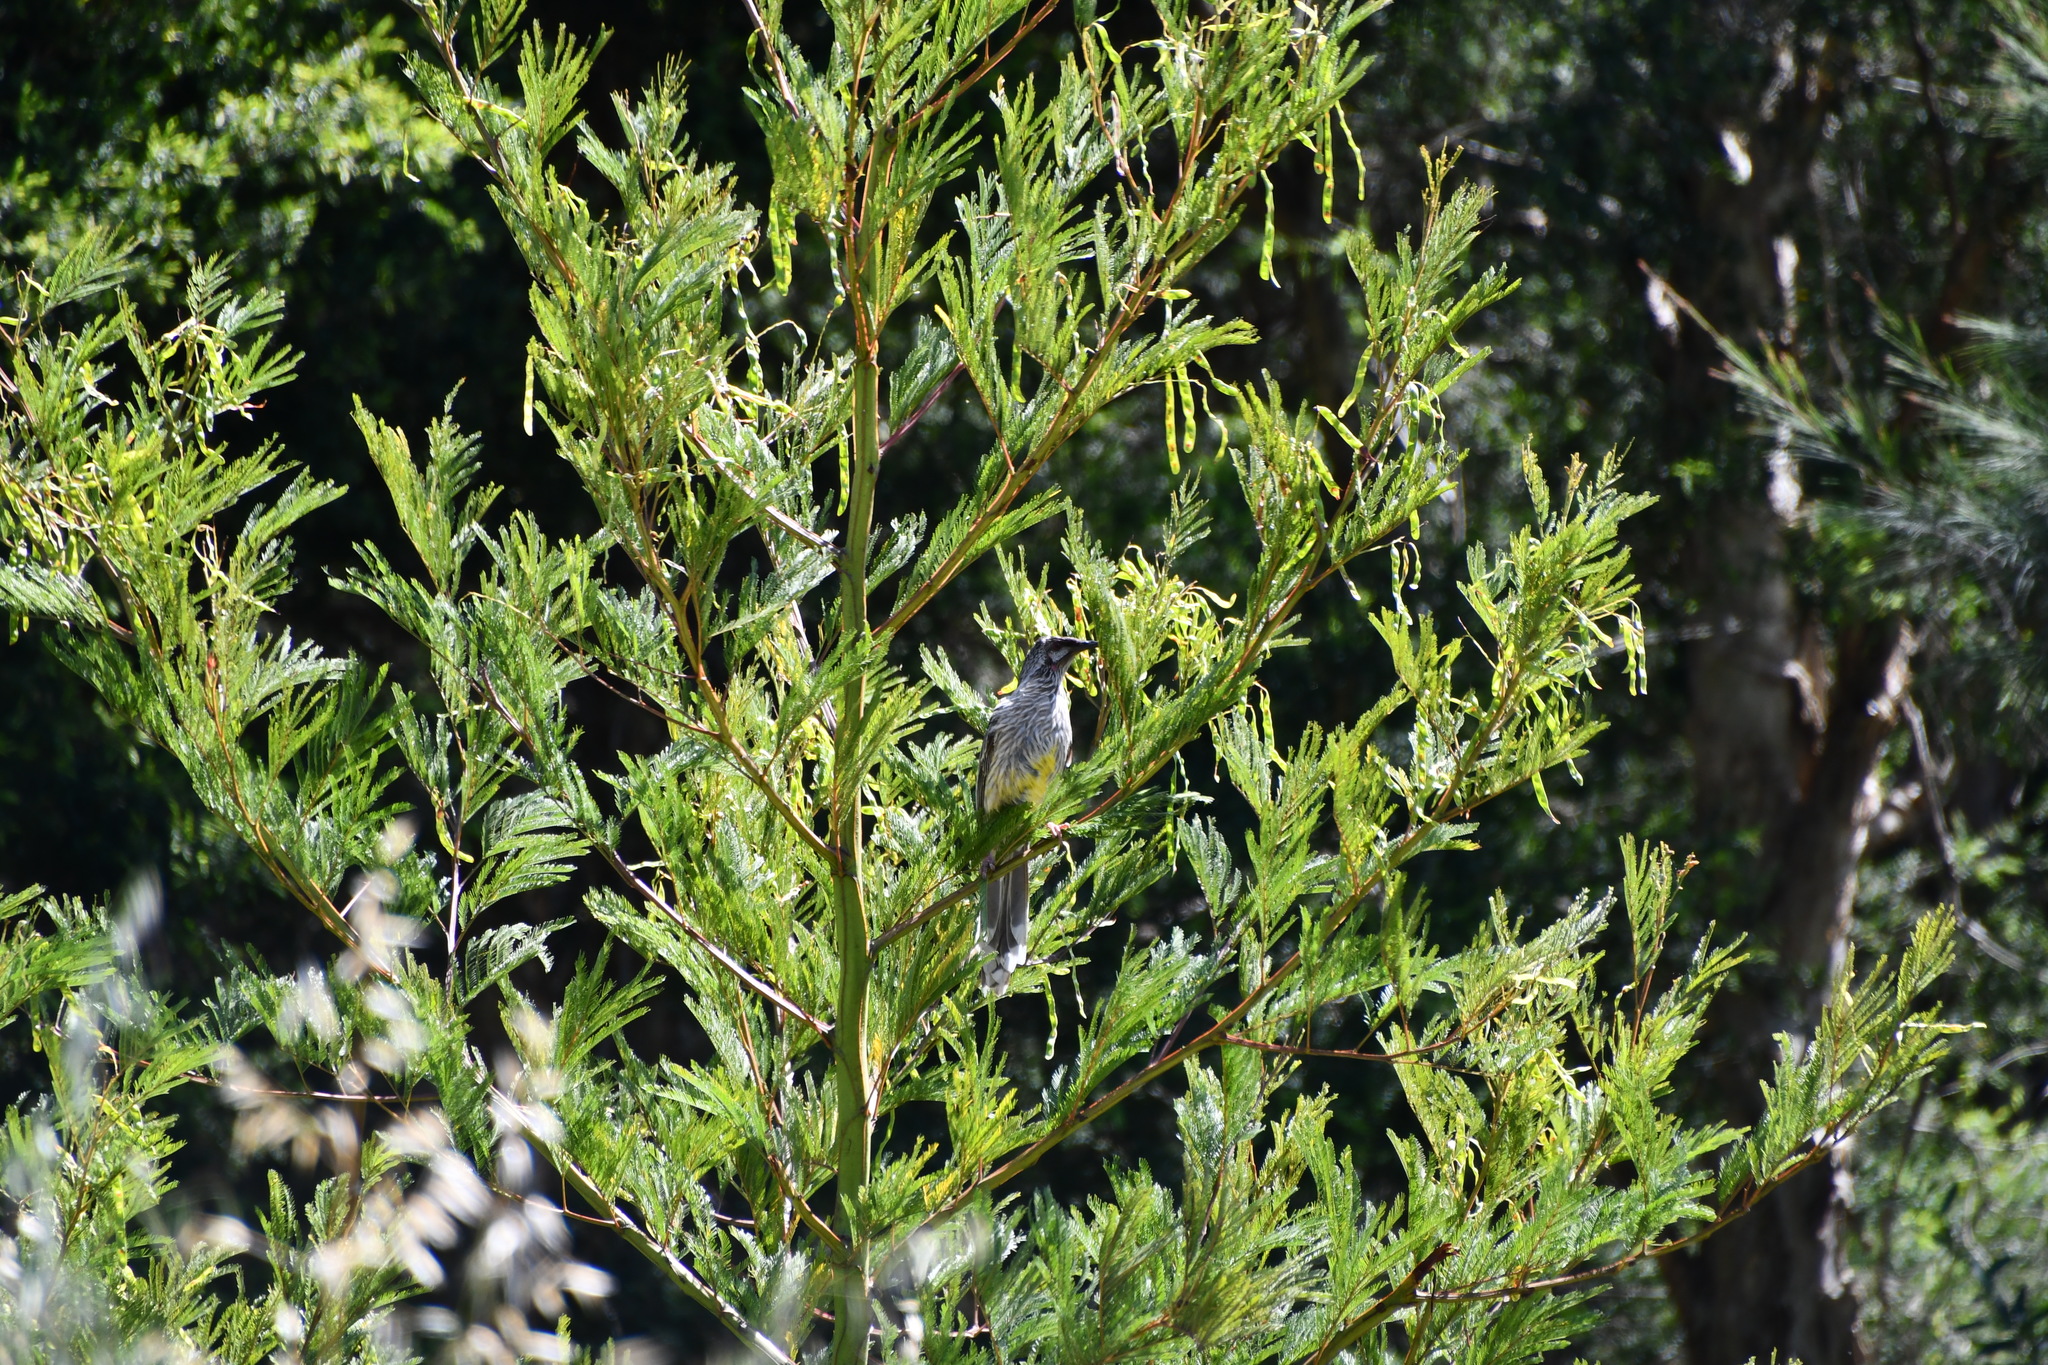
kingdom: Animalia
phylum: Chordata
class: Aves
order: Passeriformes
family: Meliphagidae
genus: Anthochaera
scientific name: Anthochaera carunculata
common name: Red wattlebird
